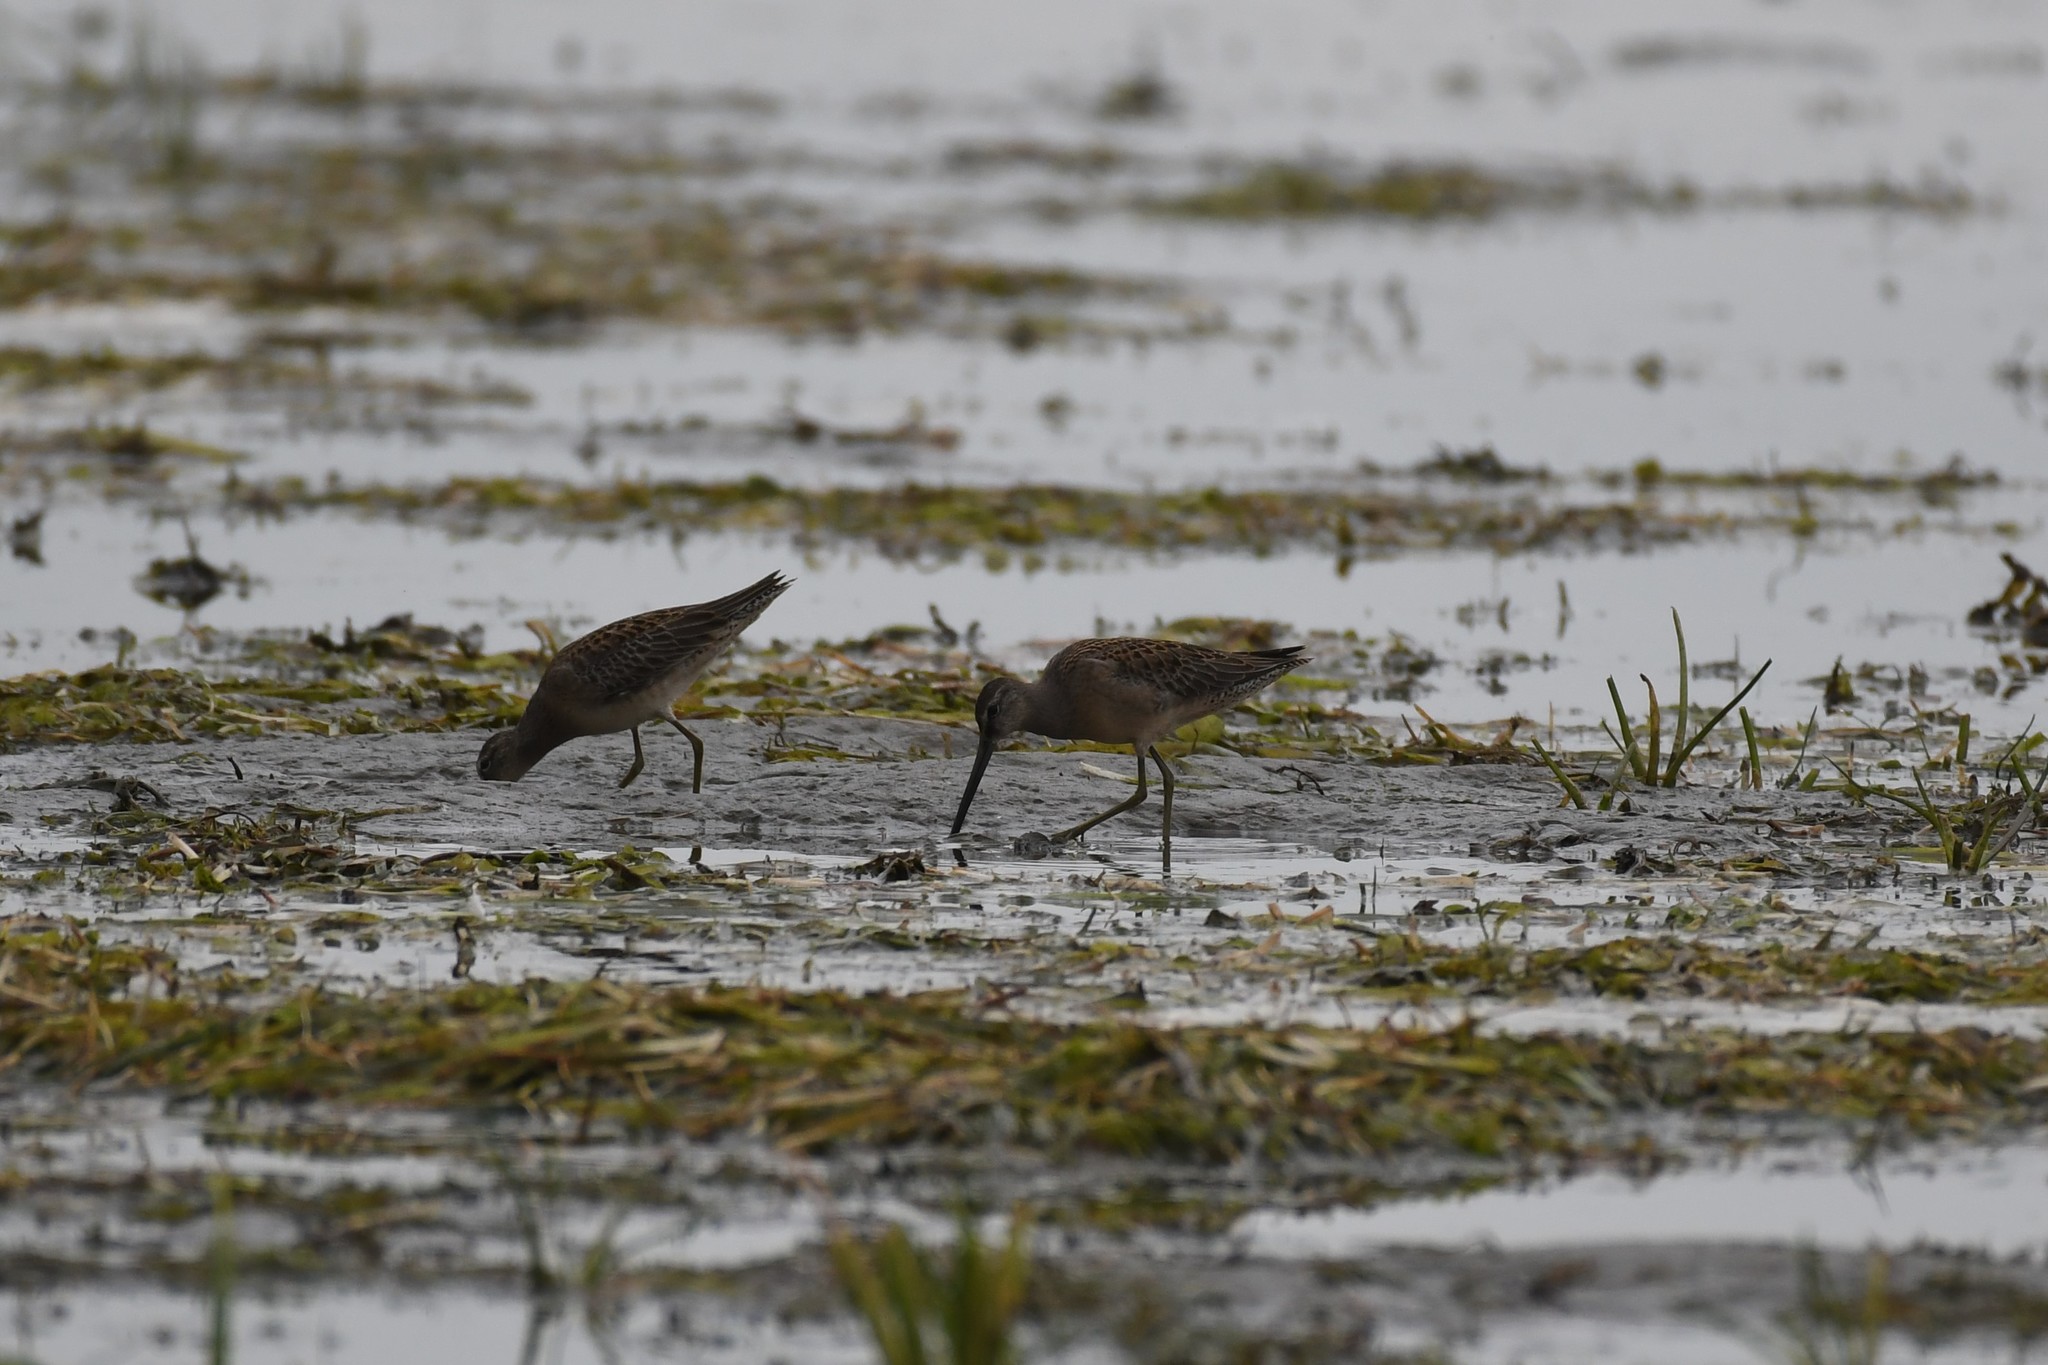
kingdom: Animalia
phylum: Chordata
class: Aves
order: Charadriiformes
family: Scolopacidae
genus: Limnodromus
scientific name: Limnodromus scolopaceus
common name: Long-billed dowitcher
